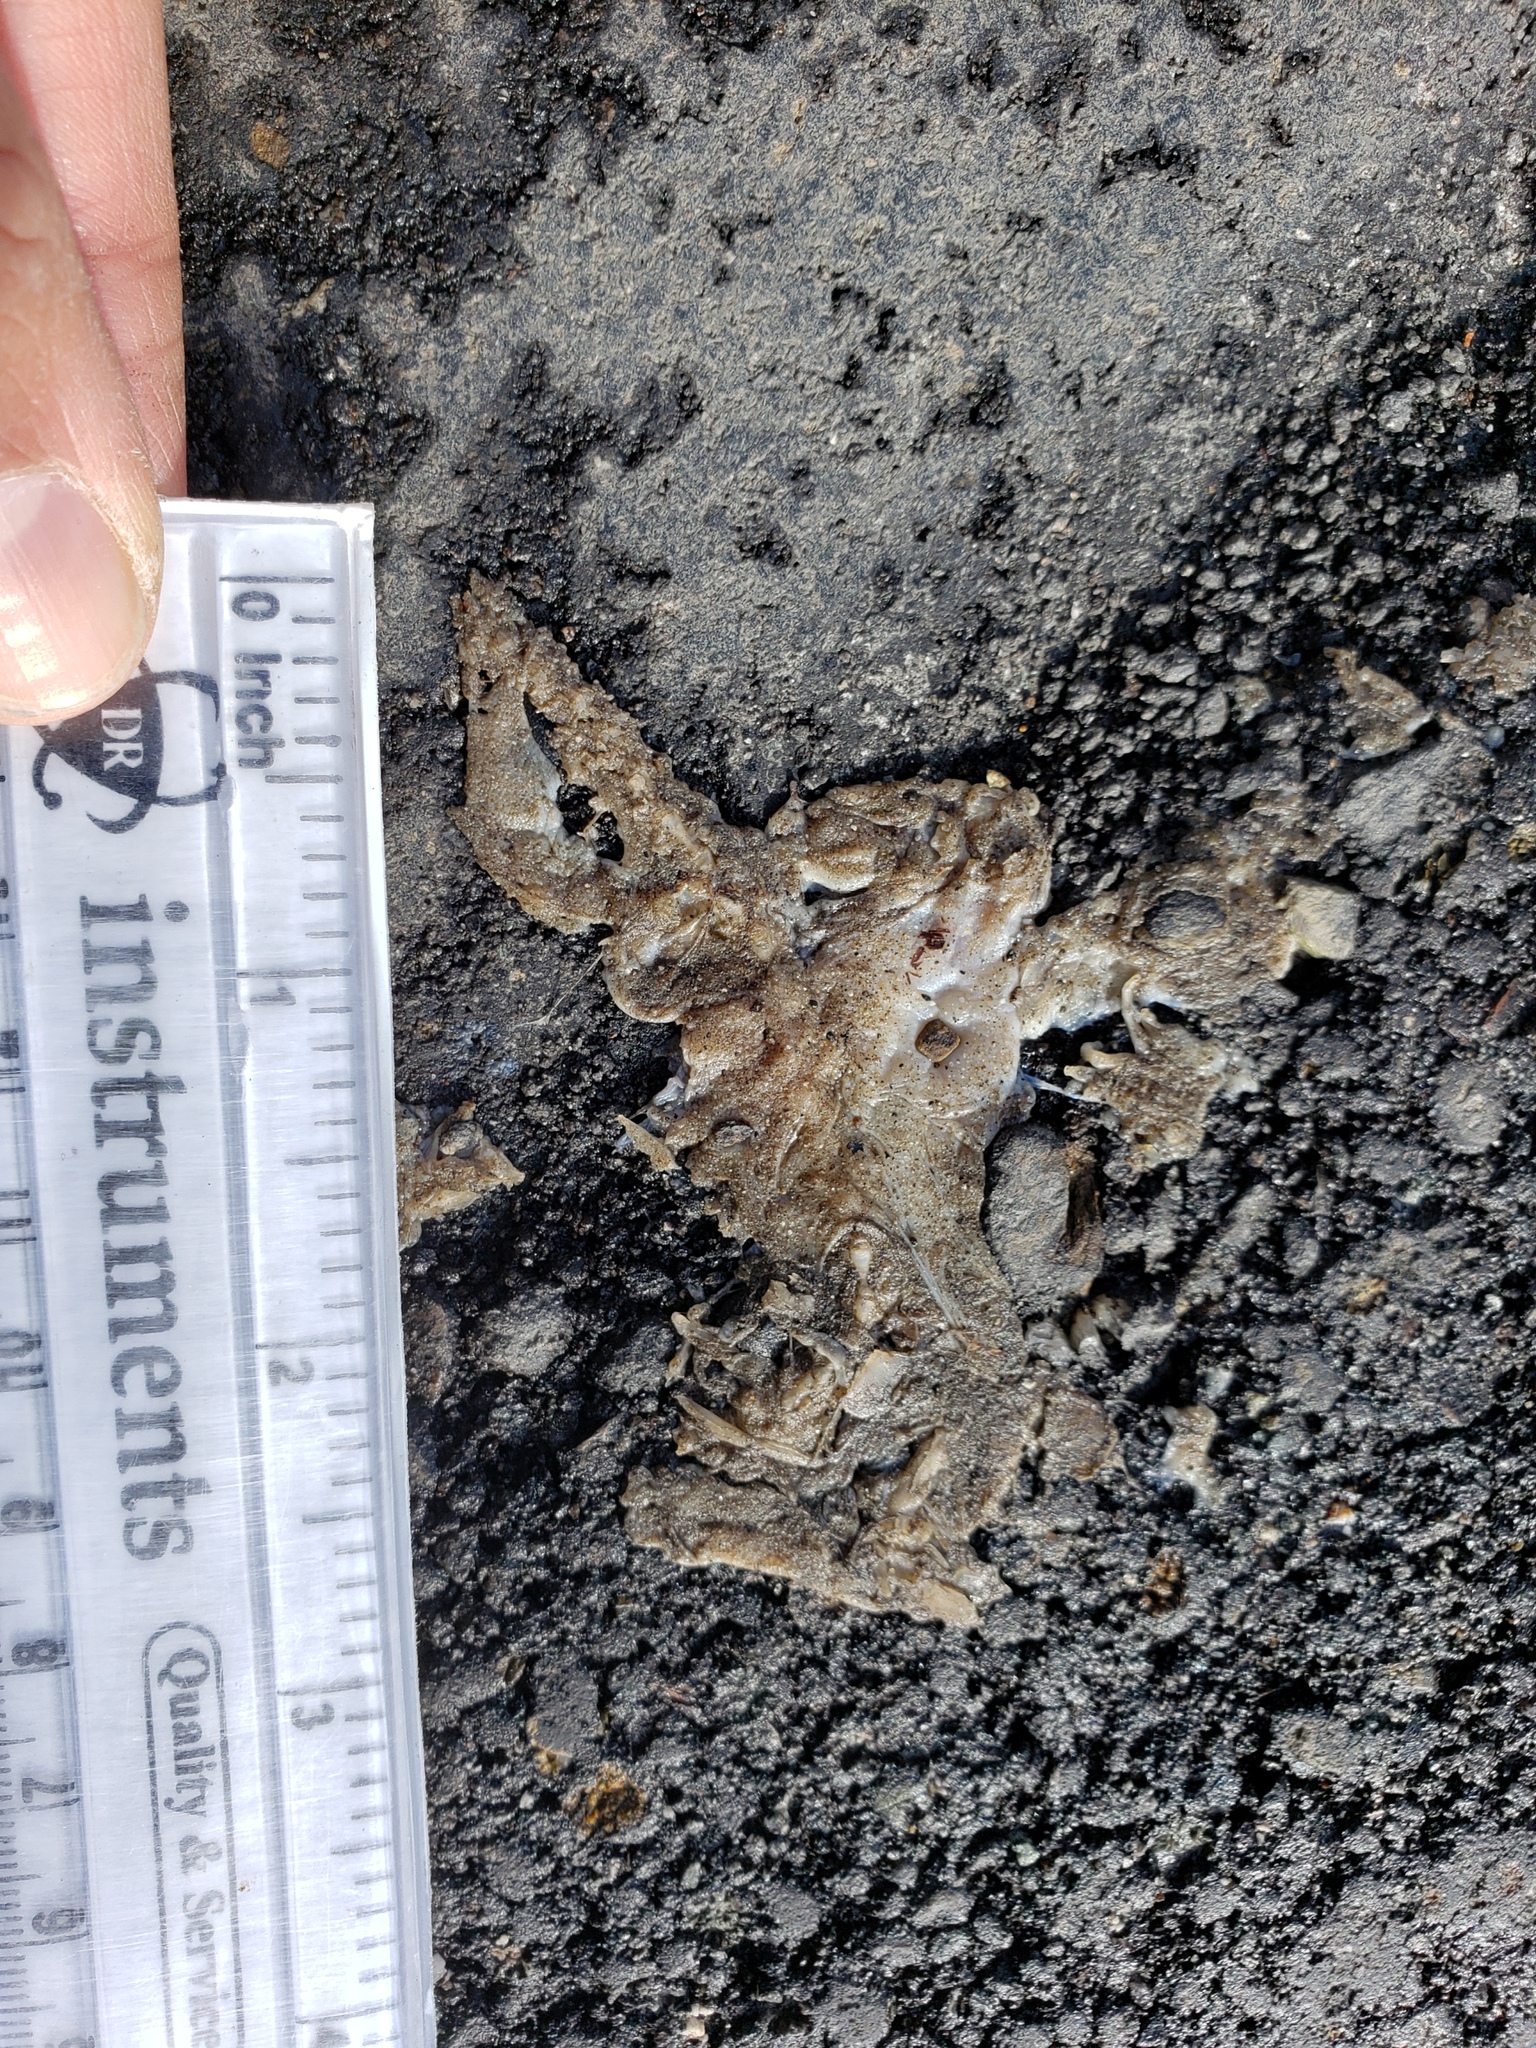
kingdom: Animalia
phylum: Chordata
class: Amphibia
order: Caudata
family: Salamandridae
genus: Taricha
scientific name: Taricha
